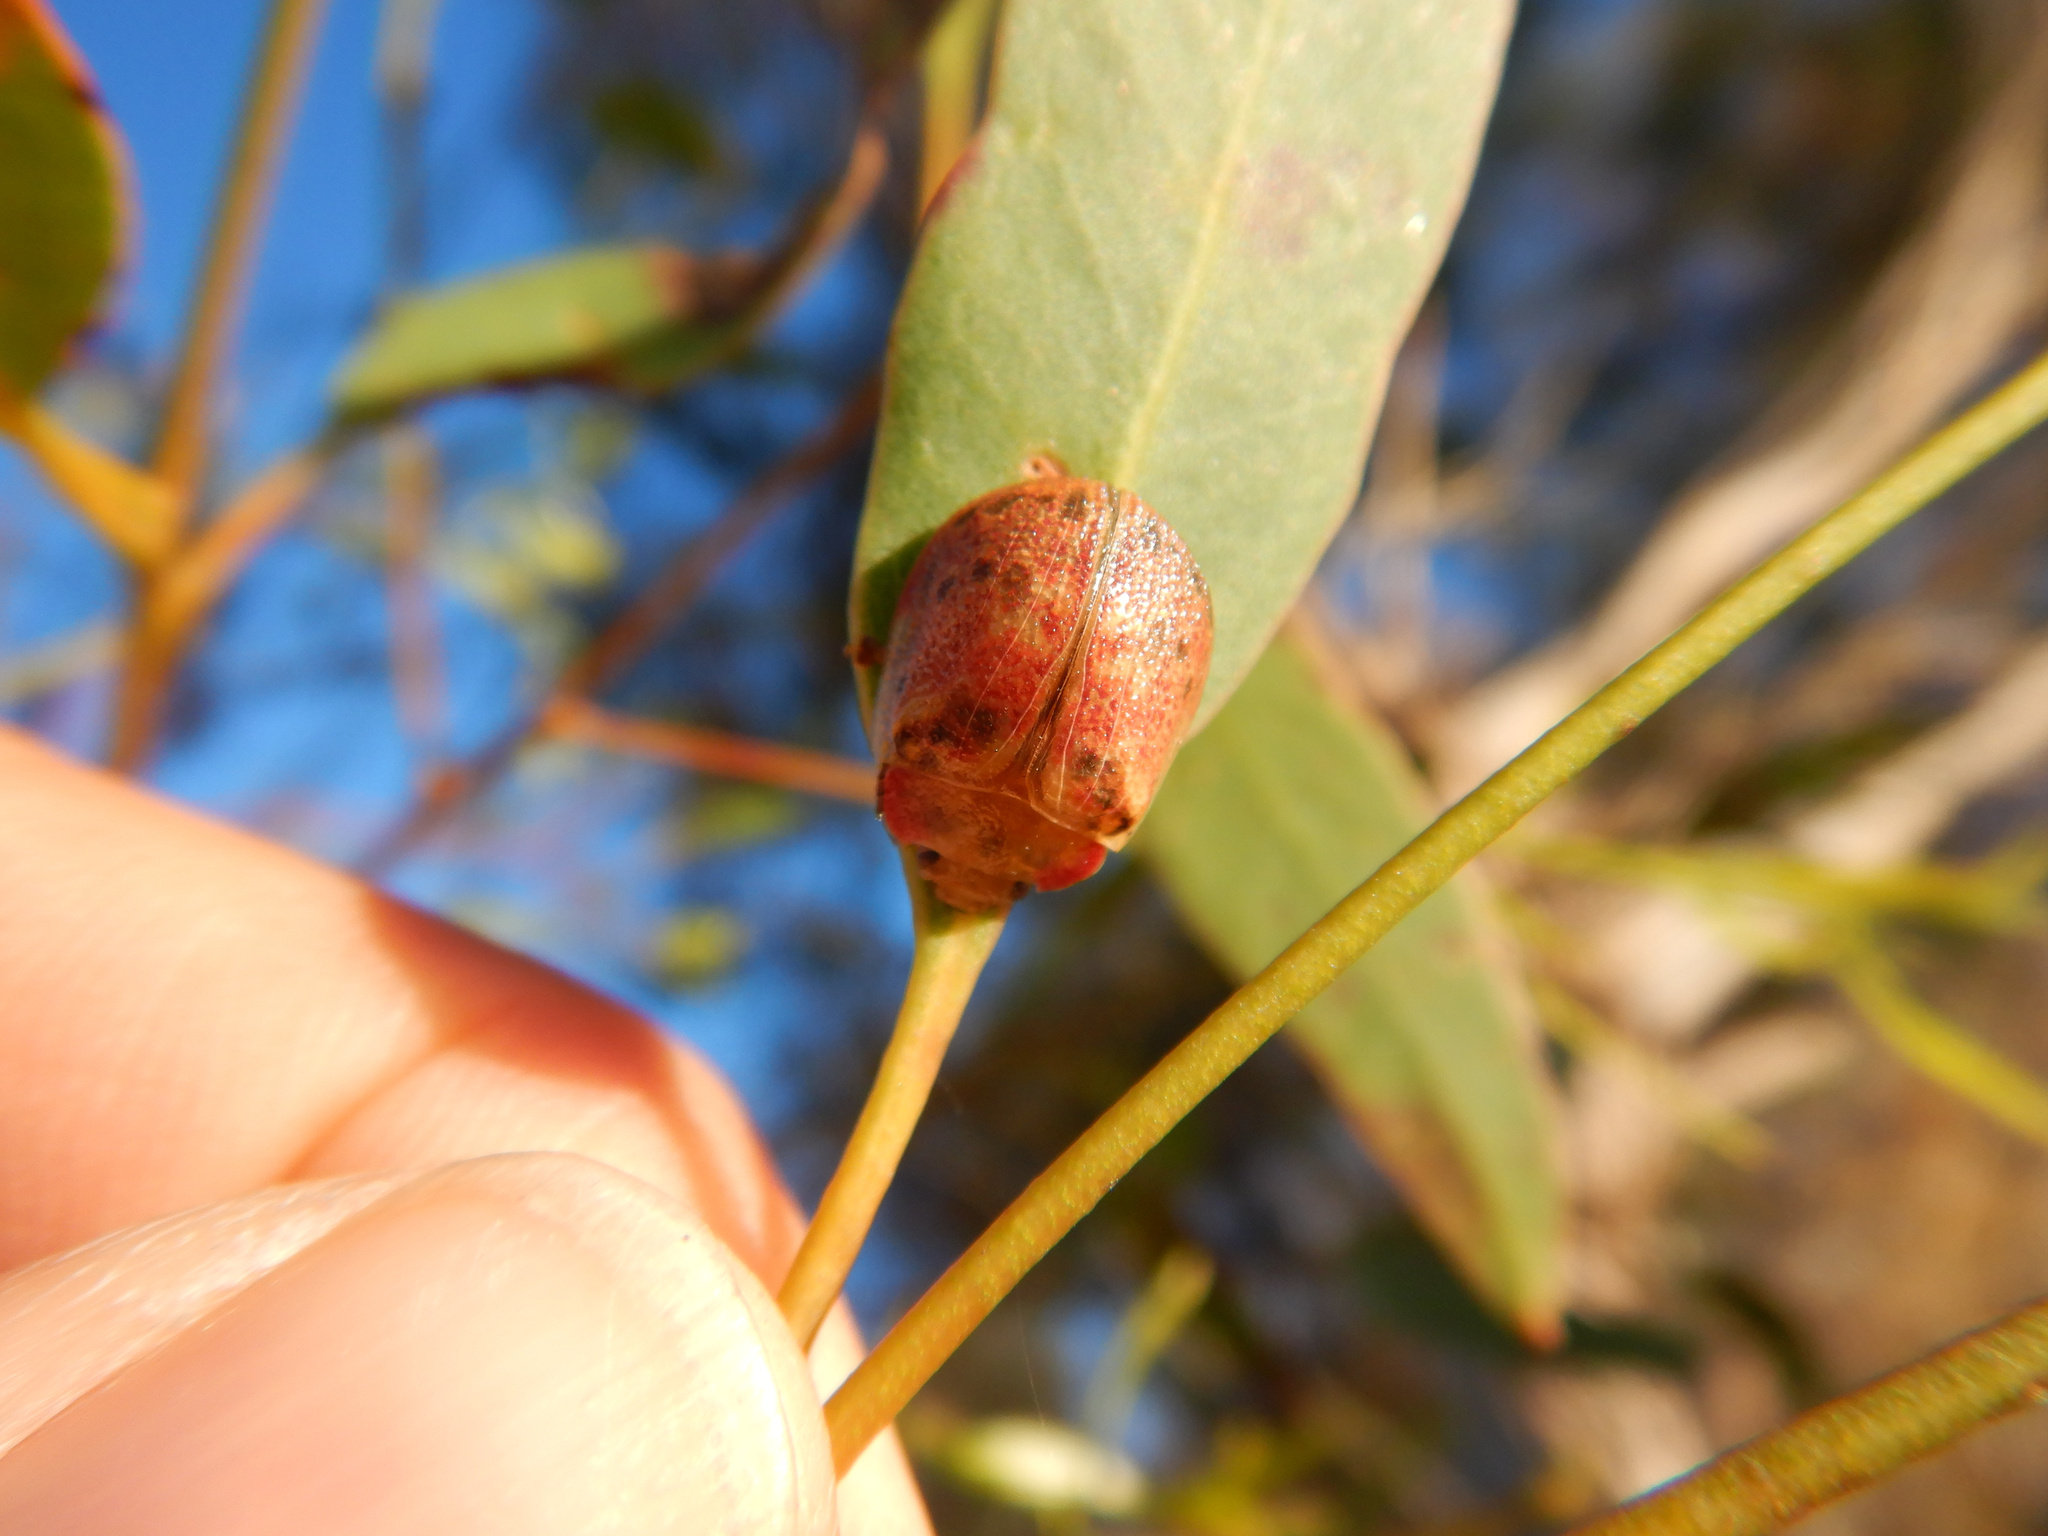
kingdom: Animalia
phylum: Arthropoda
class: Insecta
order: Coleoptera
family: Chrysomelidae
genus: Paropsis
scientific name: Paropsis charybdis
